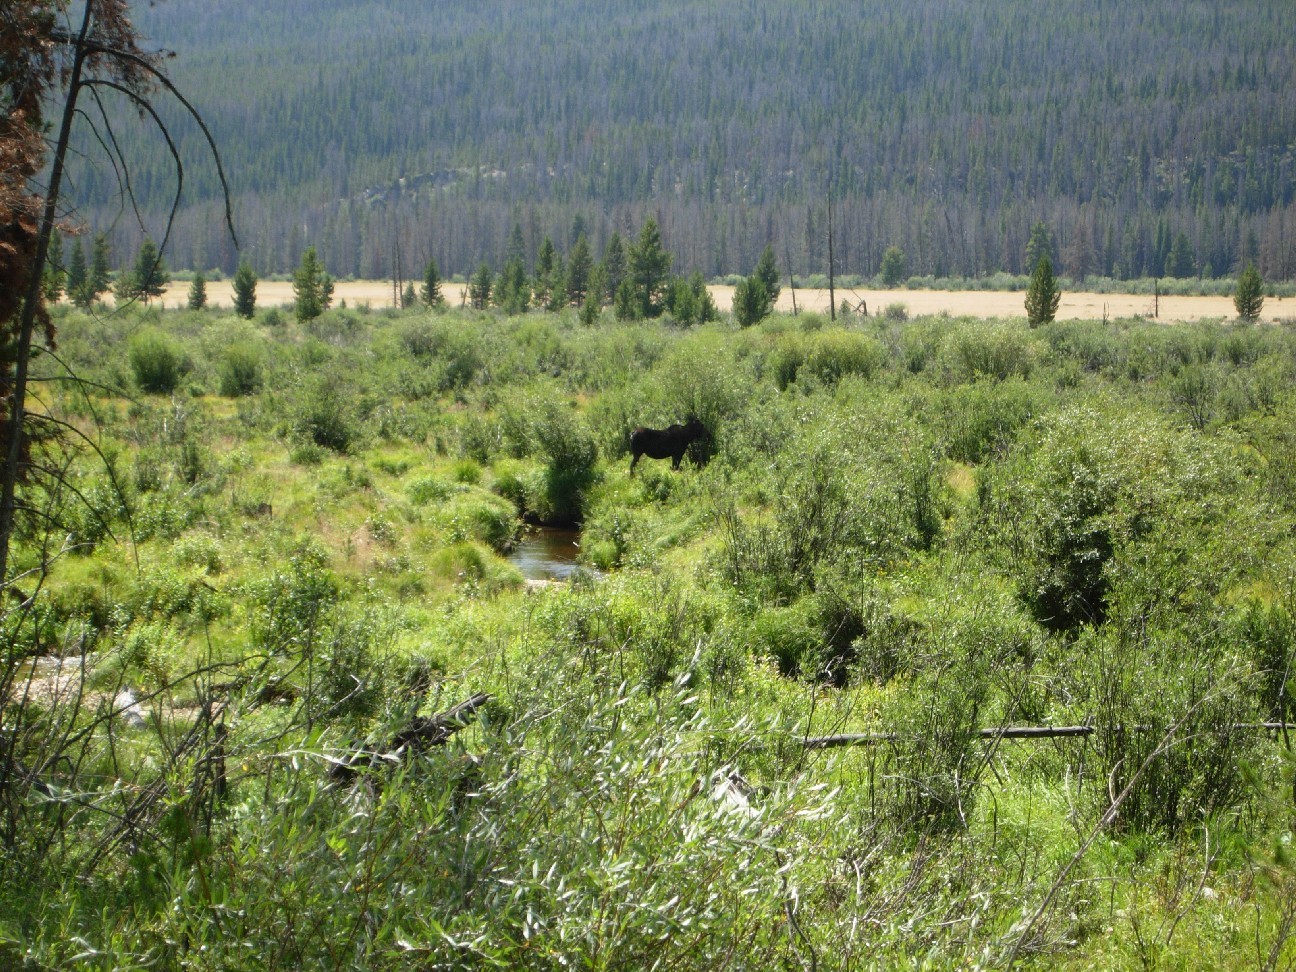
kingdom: Animalia
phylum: Chordata
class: Mammalia
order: Artiodactyla
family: Cervidae
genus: Alces
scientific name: Alces alces
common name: Moose
